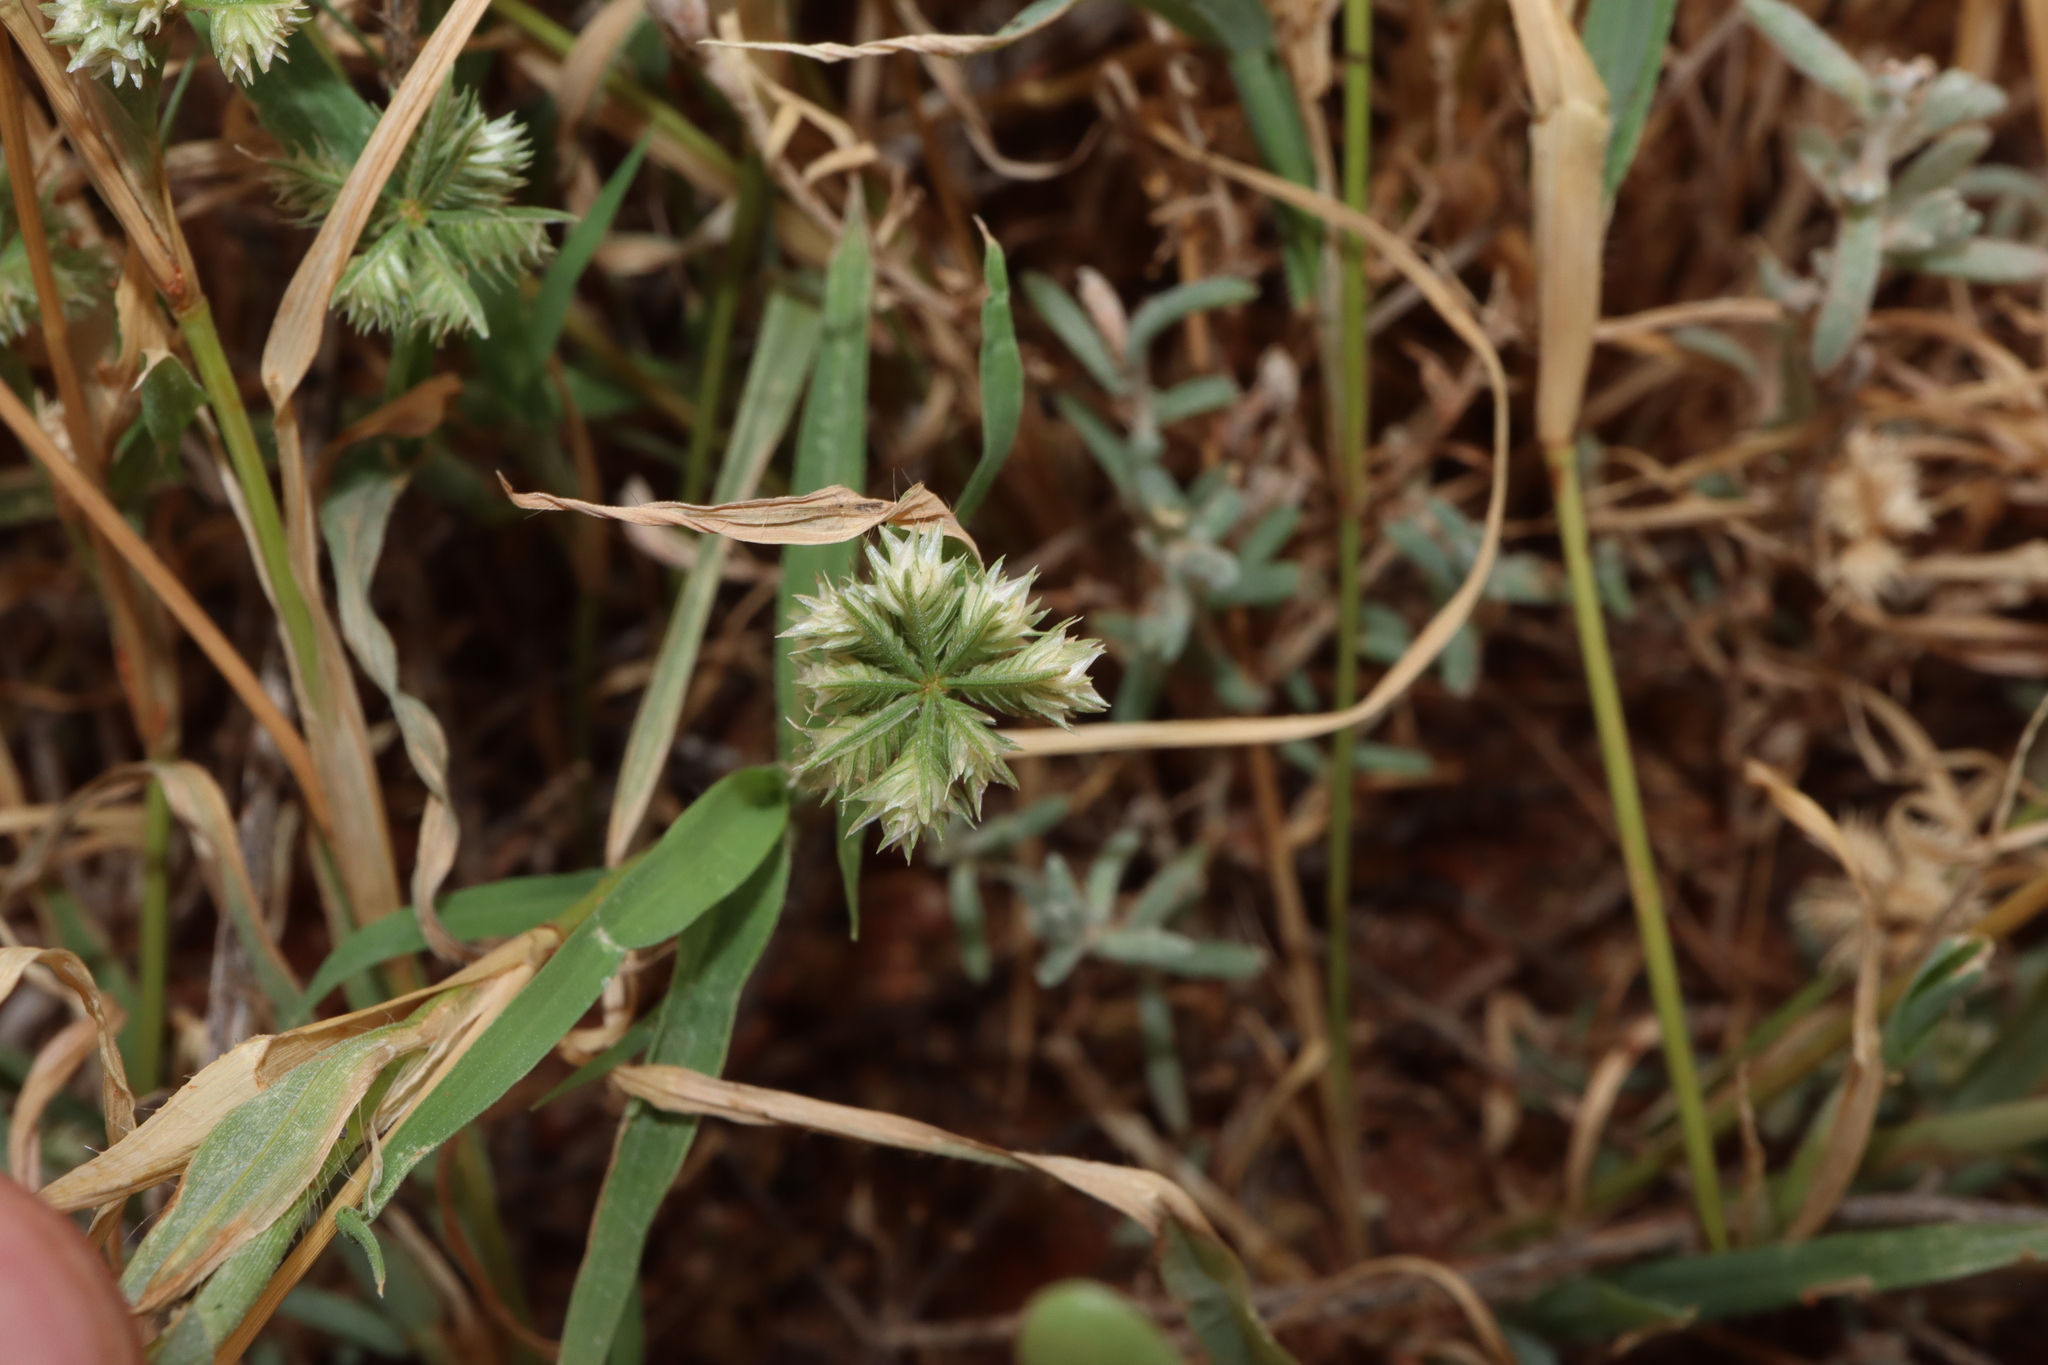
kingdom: Plantae
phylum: Tracheophyta
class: Liliopsida
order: Poales
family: Poaceae
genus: Dactyloctenium
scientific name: Dactyloctenium radulans
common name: Button-grass
